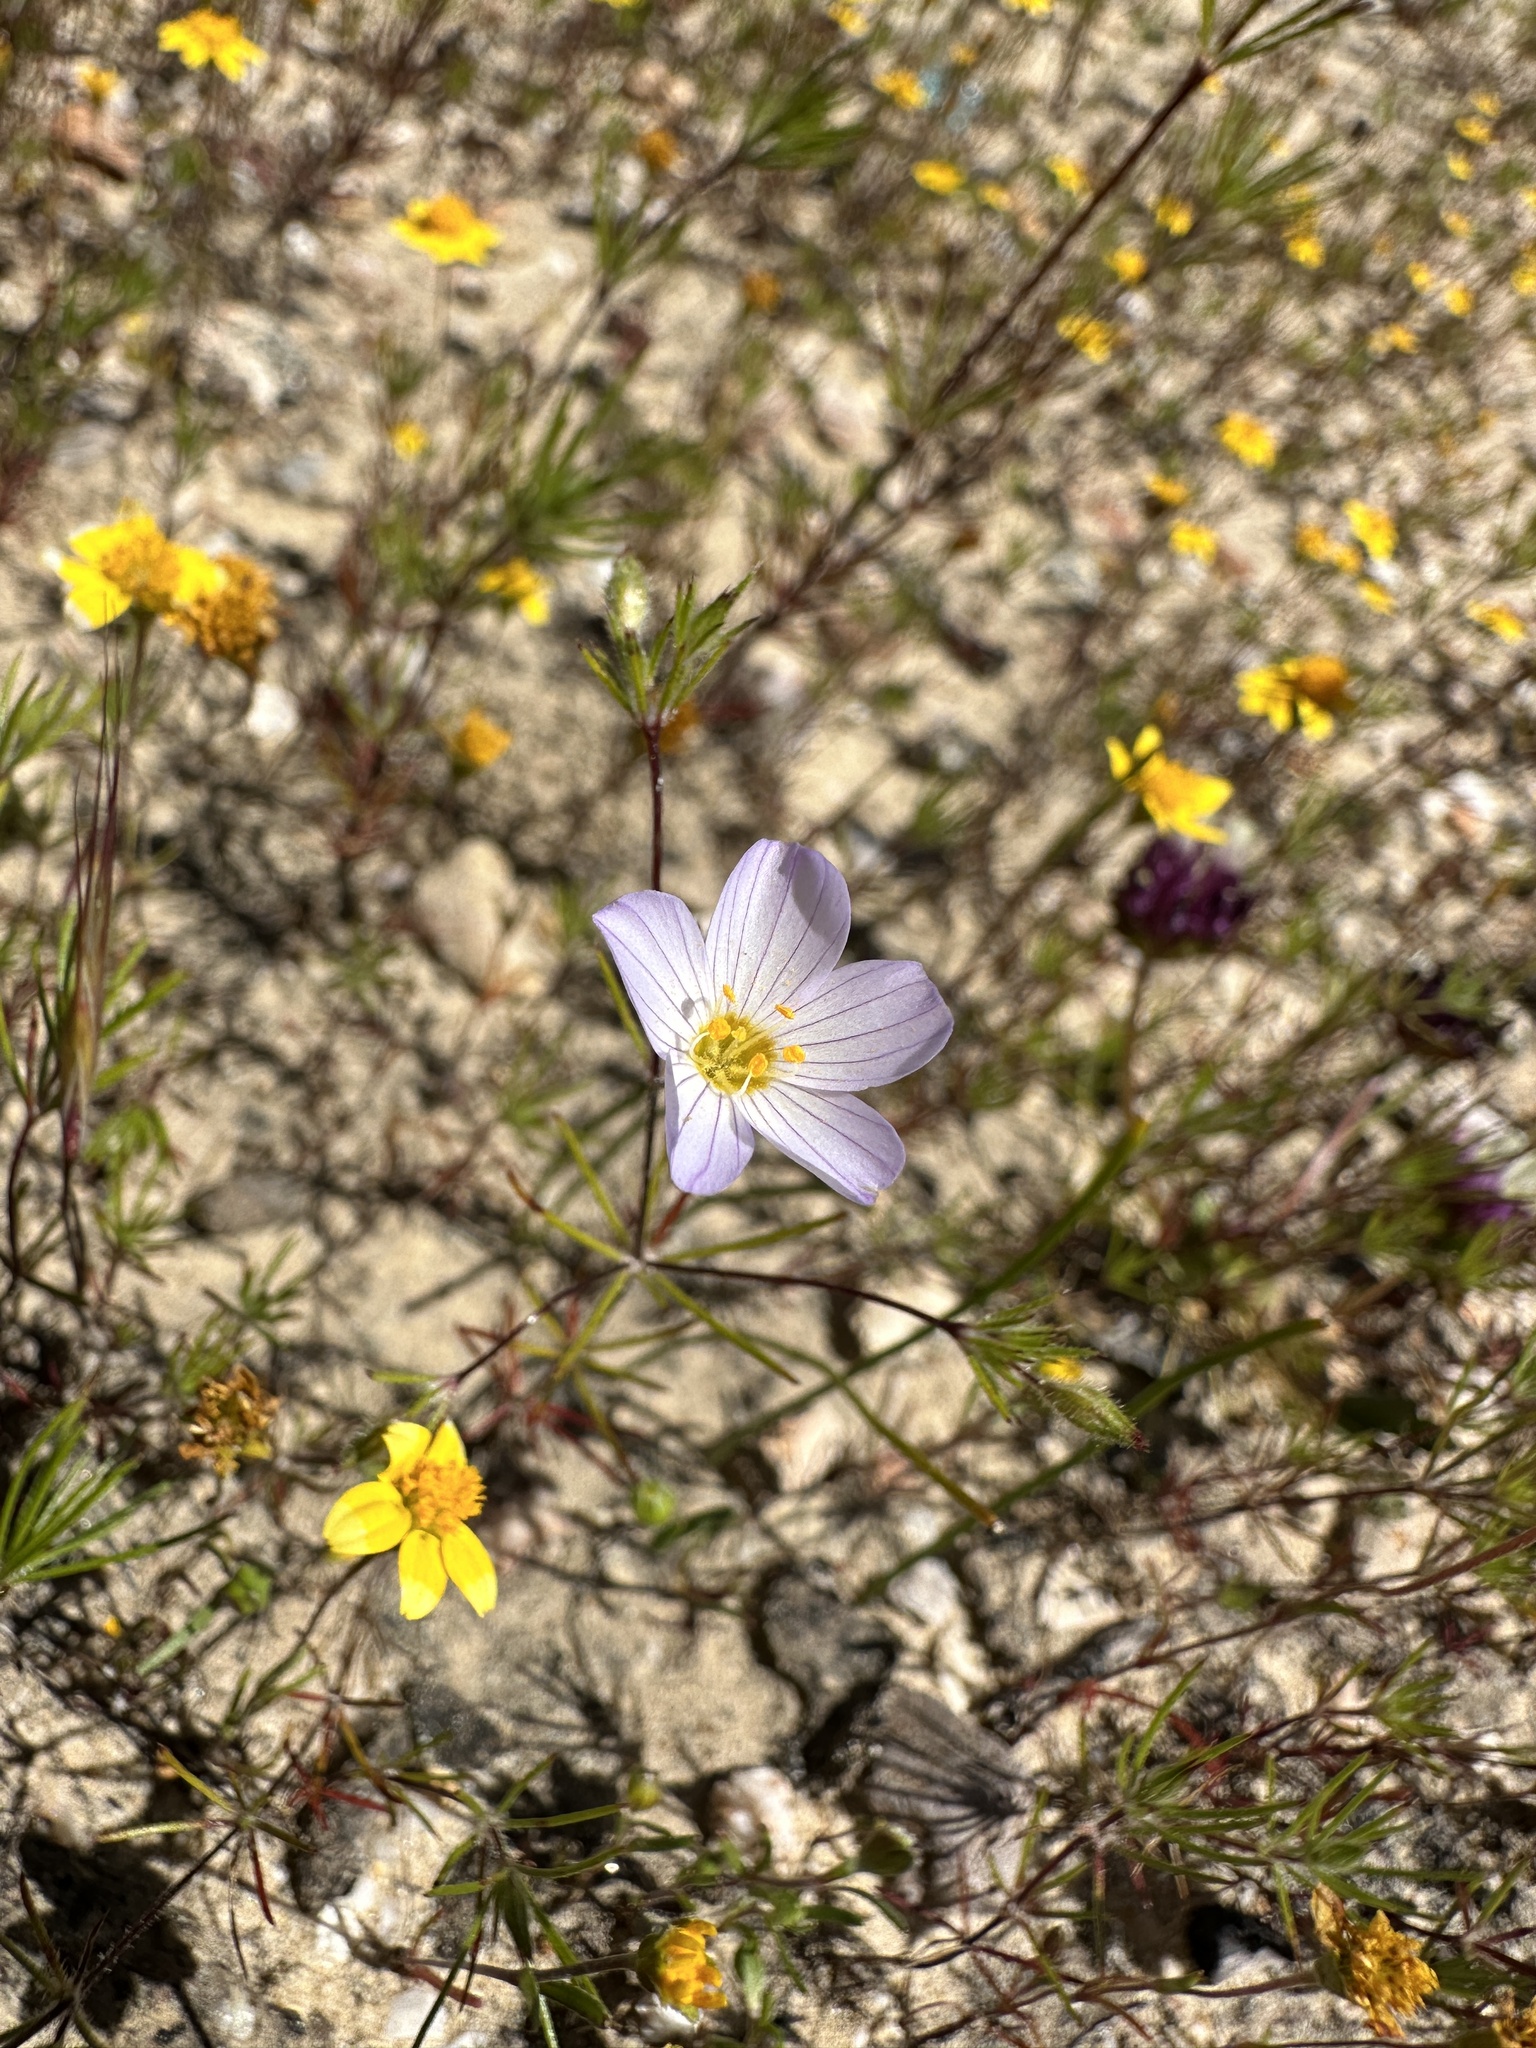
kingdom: Plantae
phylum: Tracheophyta
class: Magnoliopsida
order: Ericales
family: Polemoniaceae
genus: Leptosiphon
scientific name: Leptosiphon liniflorus
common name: Narrowflower flaxflower
